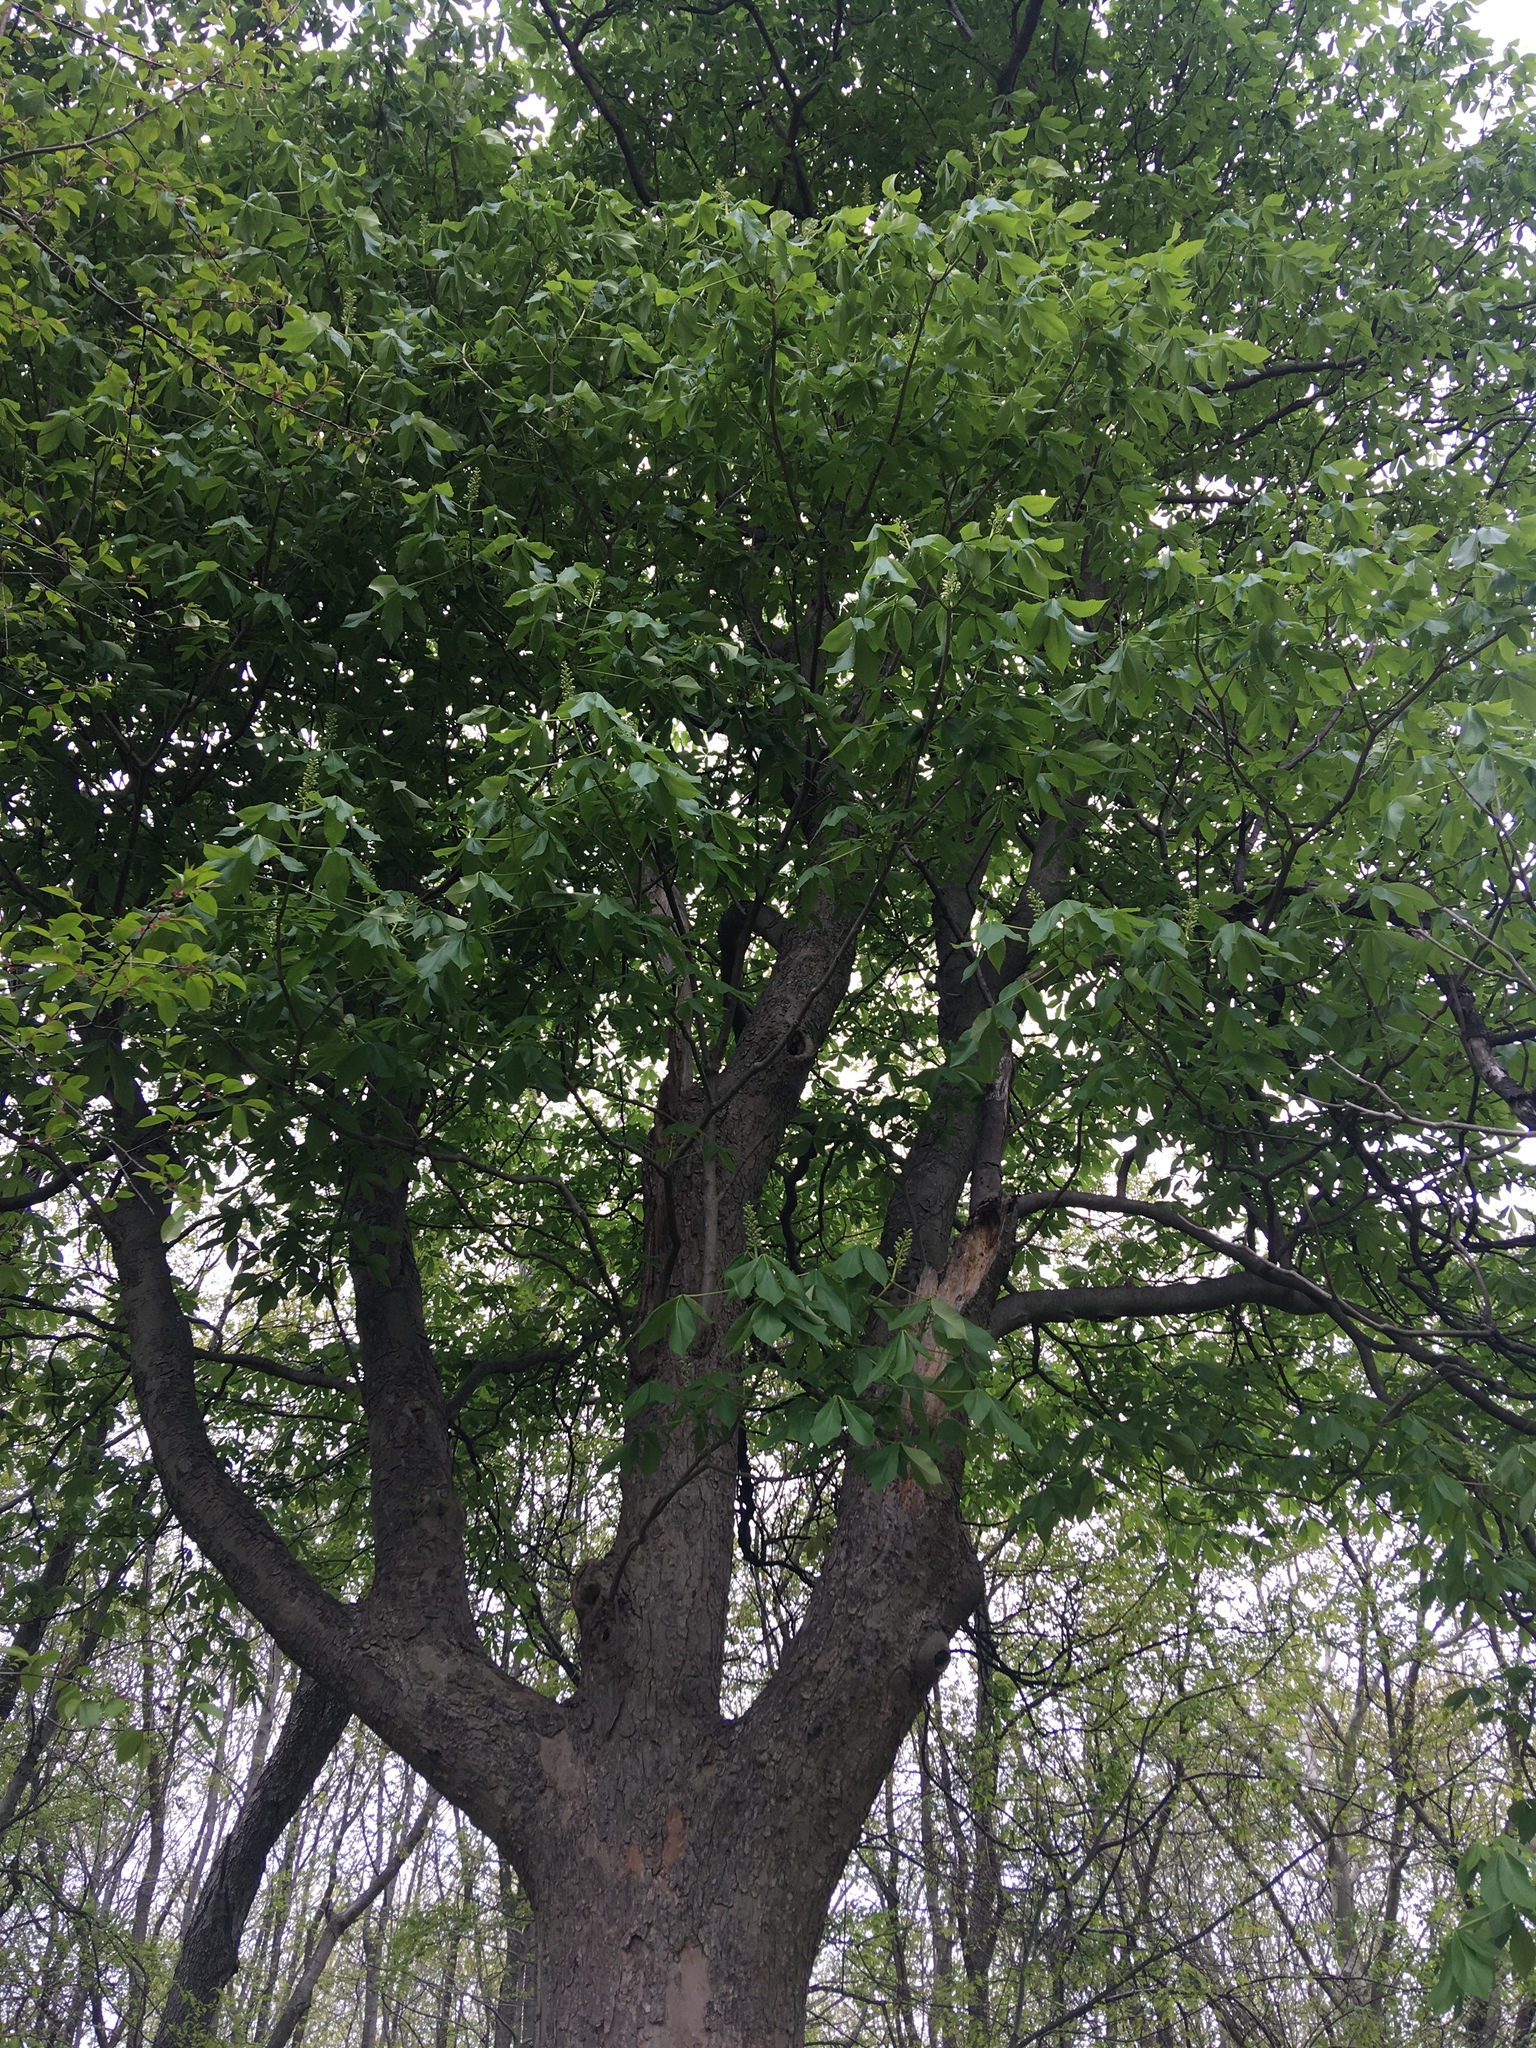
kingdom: Plantae
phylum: Tracheophyta
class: Magnoliopsida
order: Sapindales
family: Sapindaceae
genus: Aesculus
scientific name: Aesculus glabra
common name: Ohio buckeye
